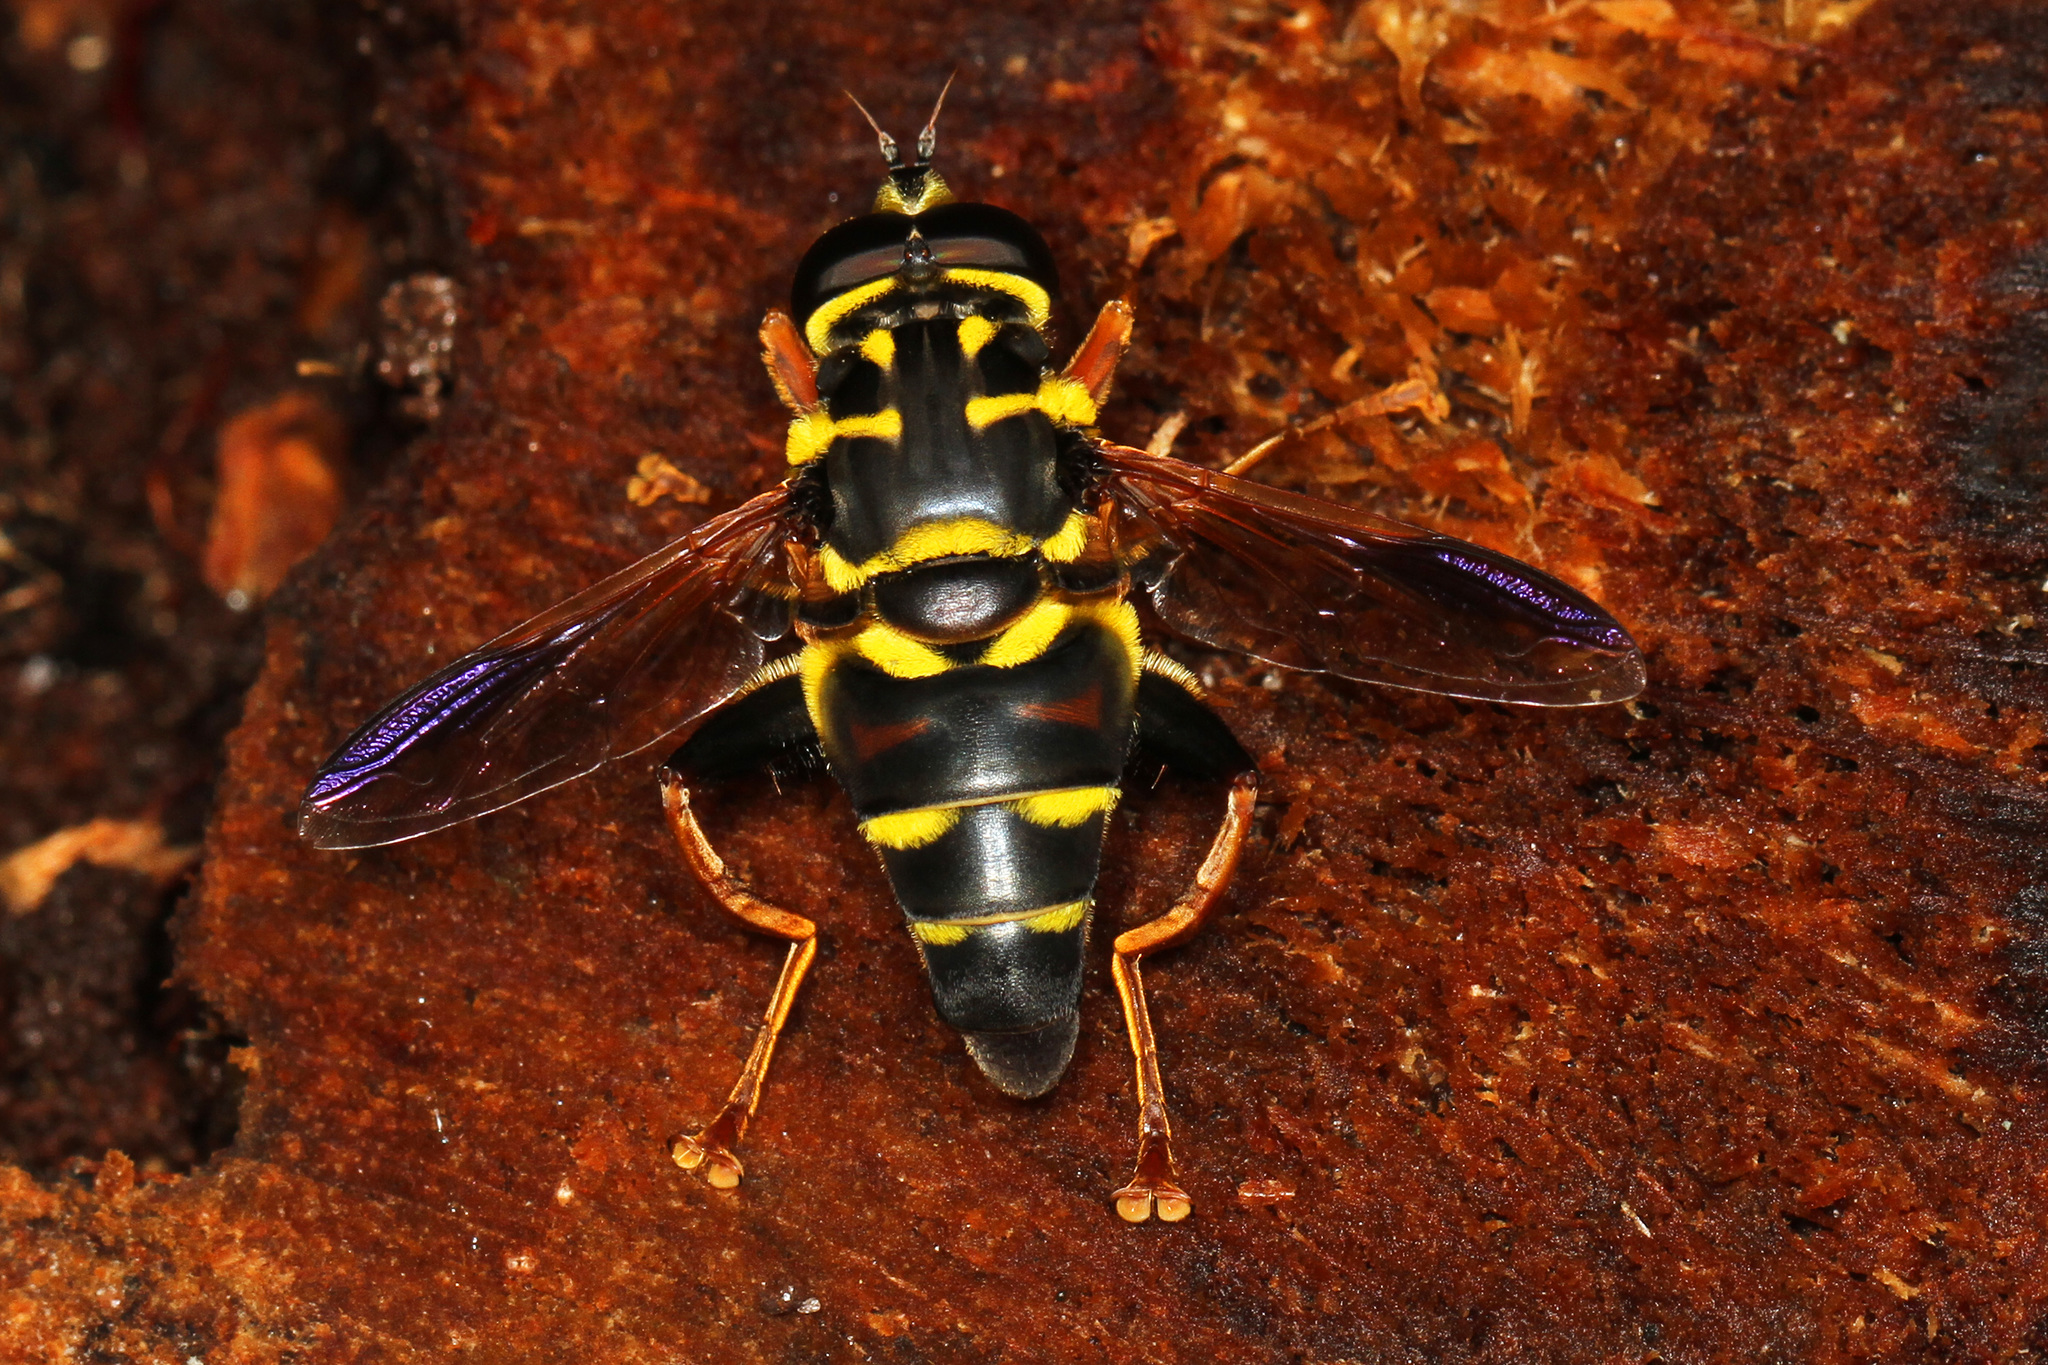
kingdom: Animalia
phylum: Arthropoda
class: Insecta
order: Diptera
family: Syrphidae
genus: Meromacrus
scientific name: Meromacrus acutus
